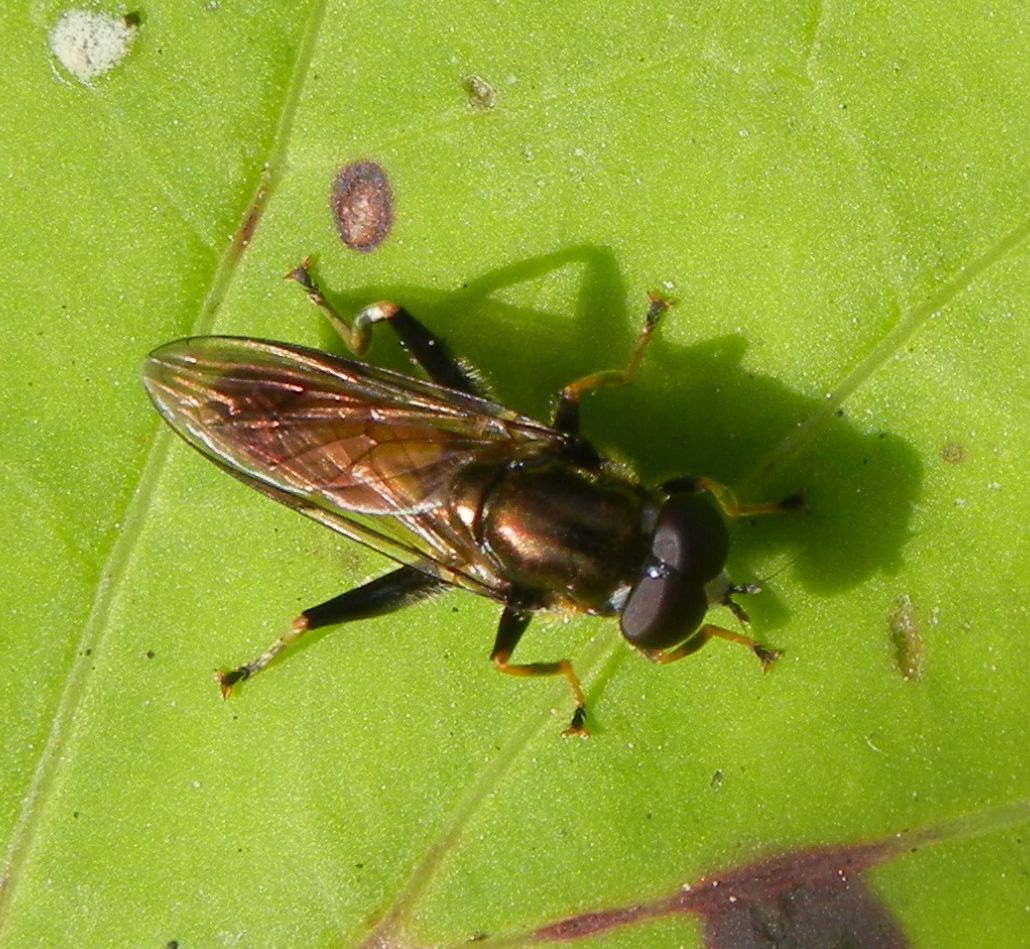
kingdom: Animalia
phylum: Arthropoda
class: Insecta
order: Diptera
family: Syrphidae
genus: Xylota
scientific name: Xylota segnis
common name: Brown-toed forest fly
